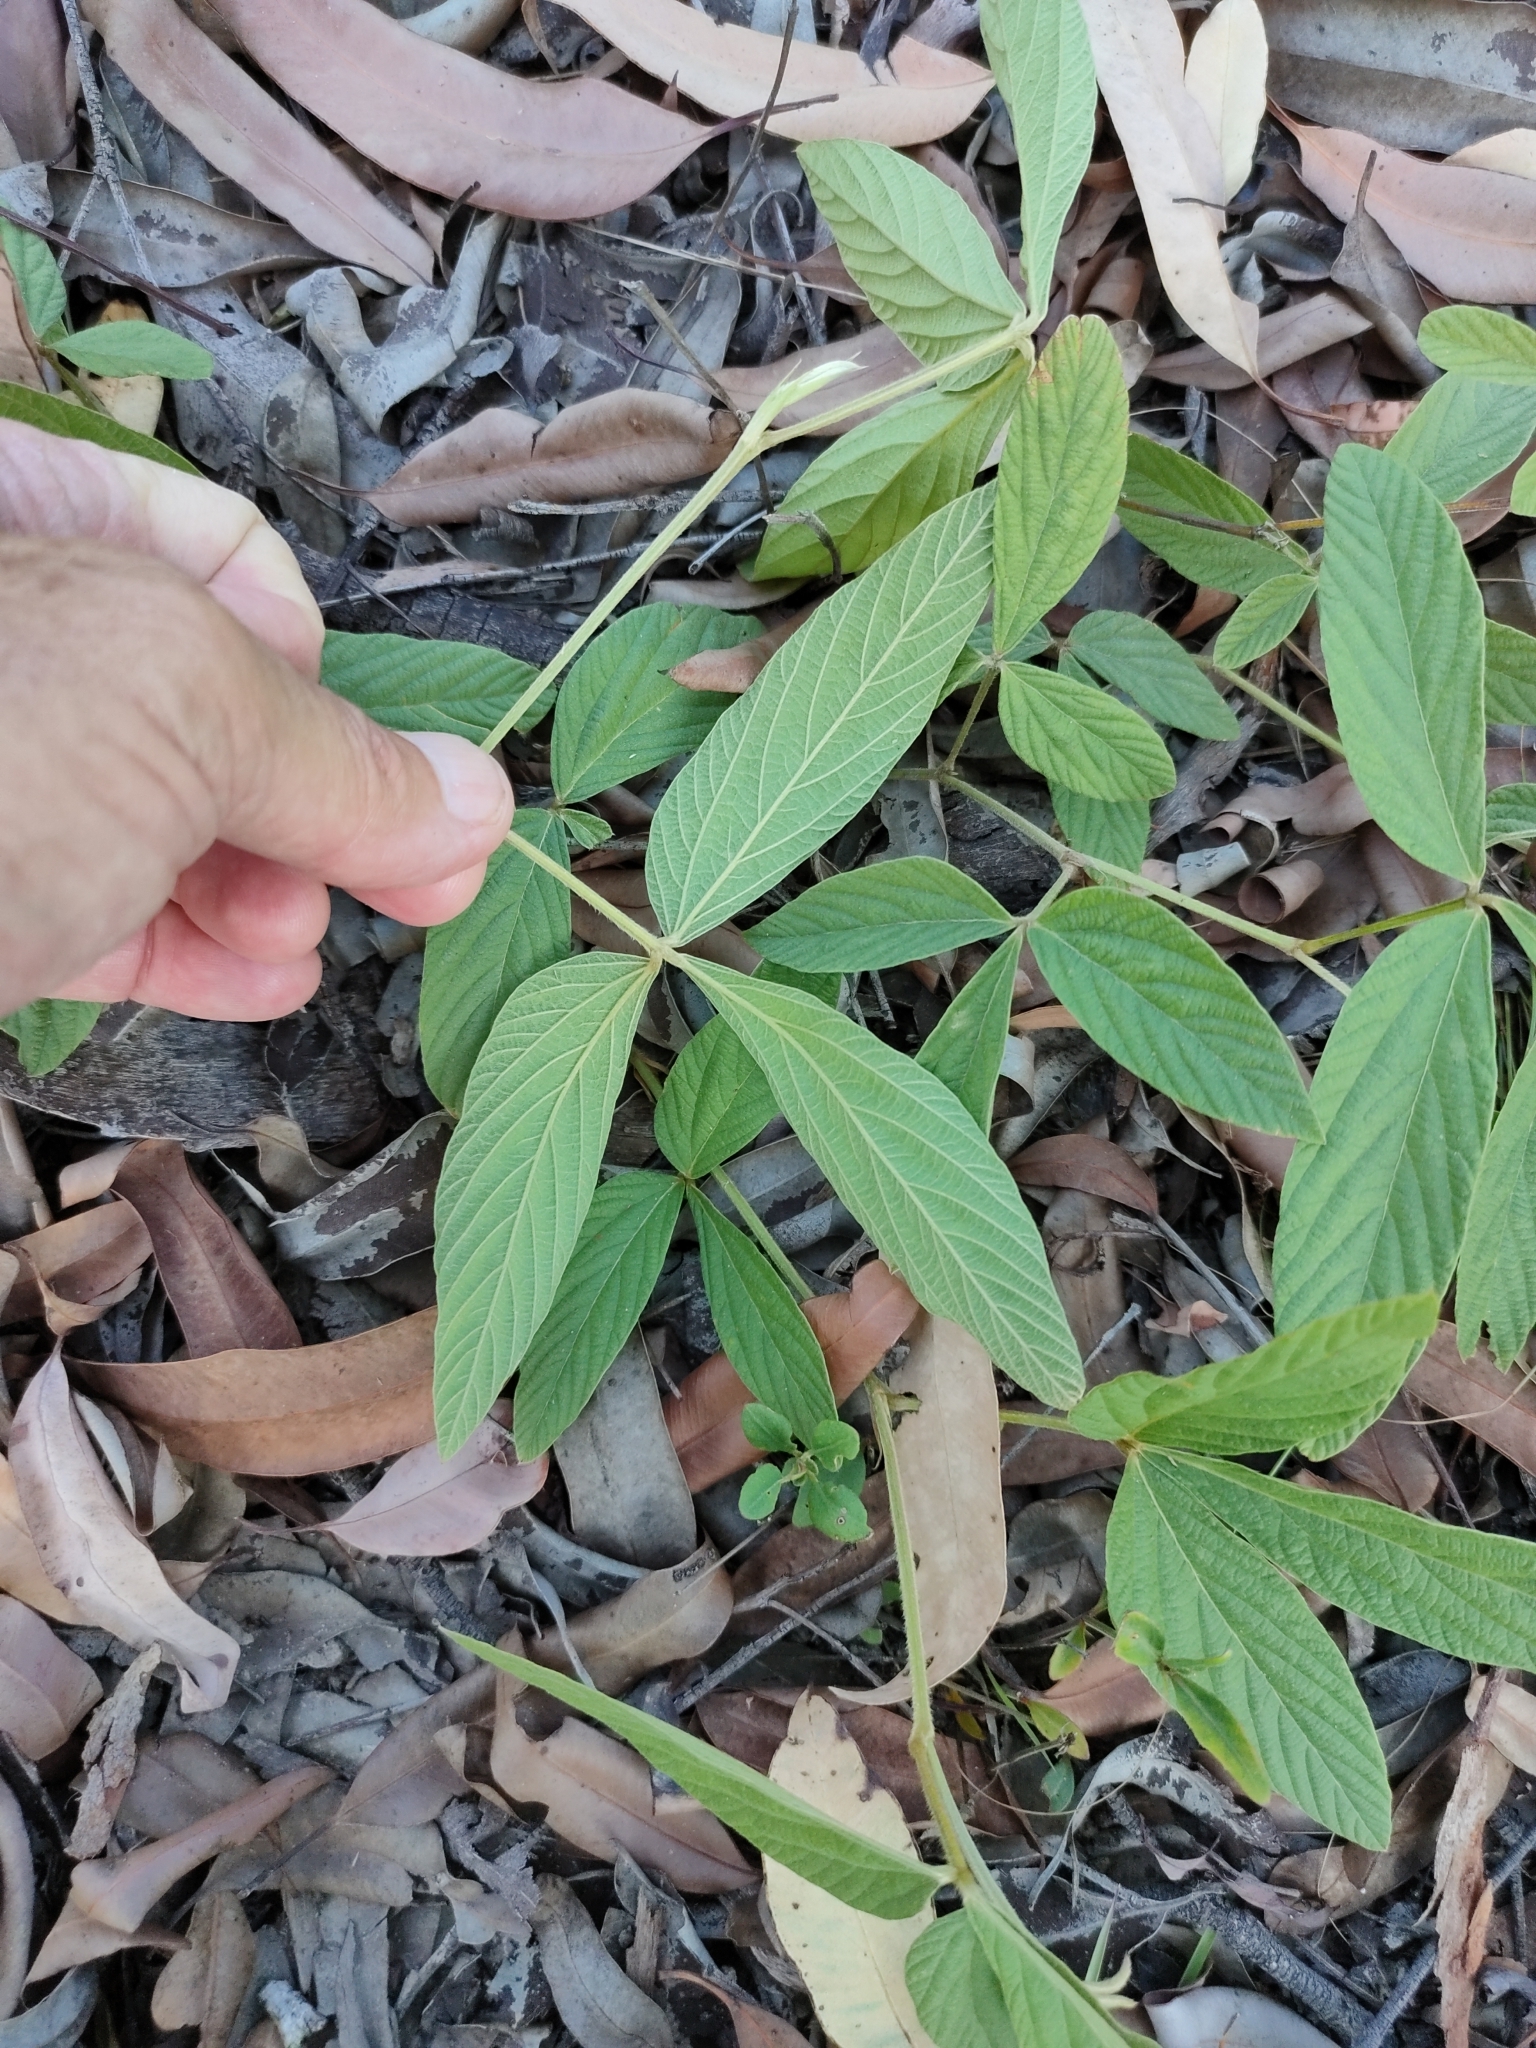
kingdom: Plantae
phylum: Tracheophyta
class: Magnoliopsida
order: Fabales
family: Fabaceae
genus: Flemingia
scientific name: Flemingia parviflora
